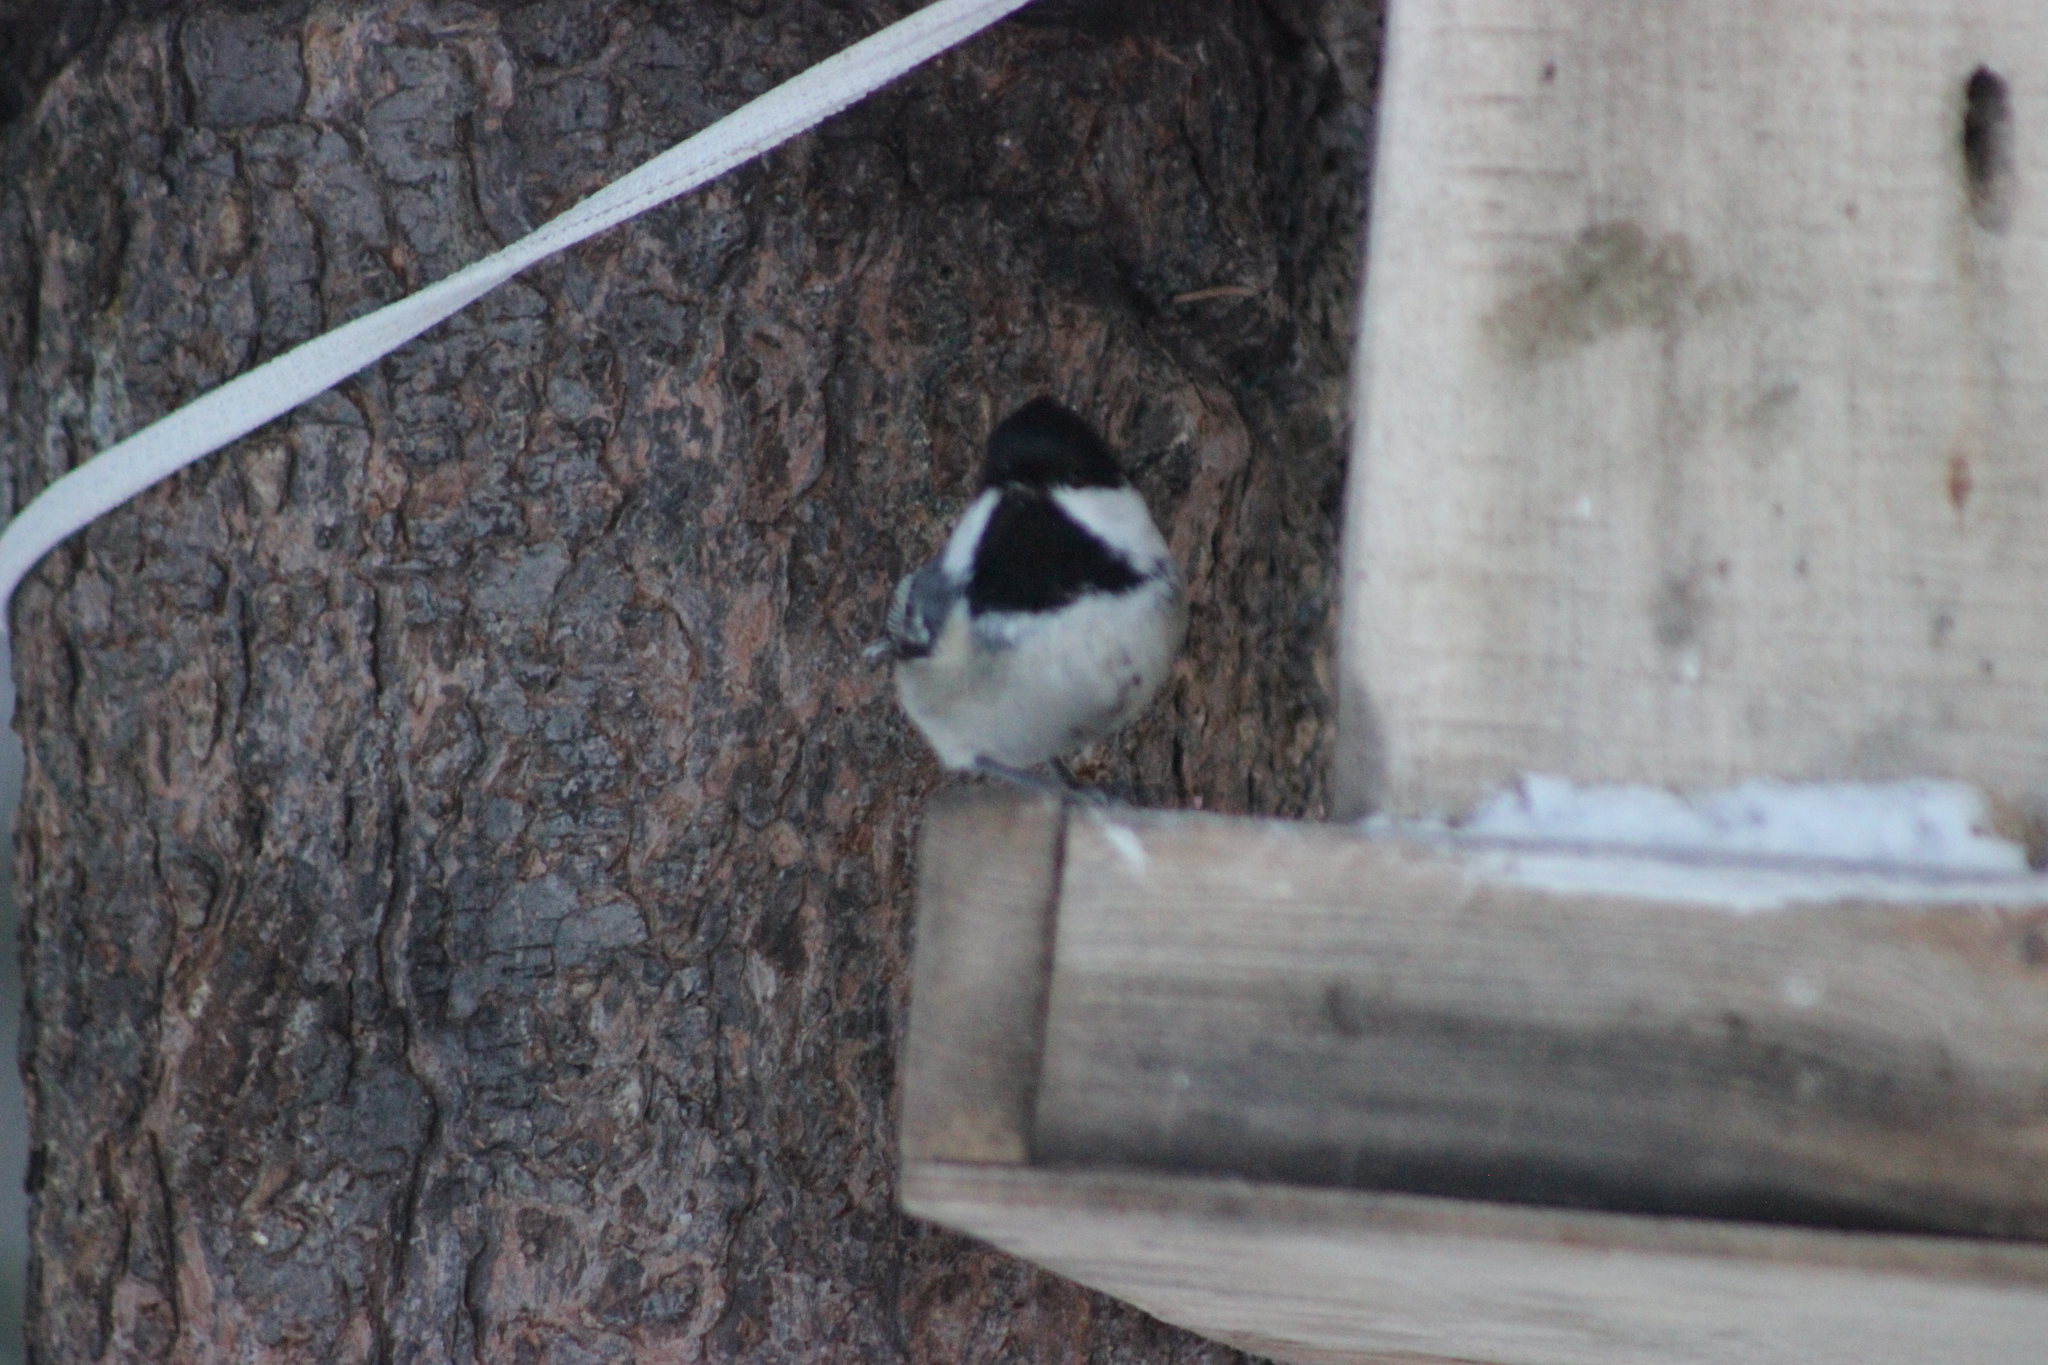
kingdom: Animalia
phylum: Chordata
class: Aves
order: Passeriformes
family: Paridae
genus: Periparus
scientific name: Periparus ater
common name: Coal tit
